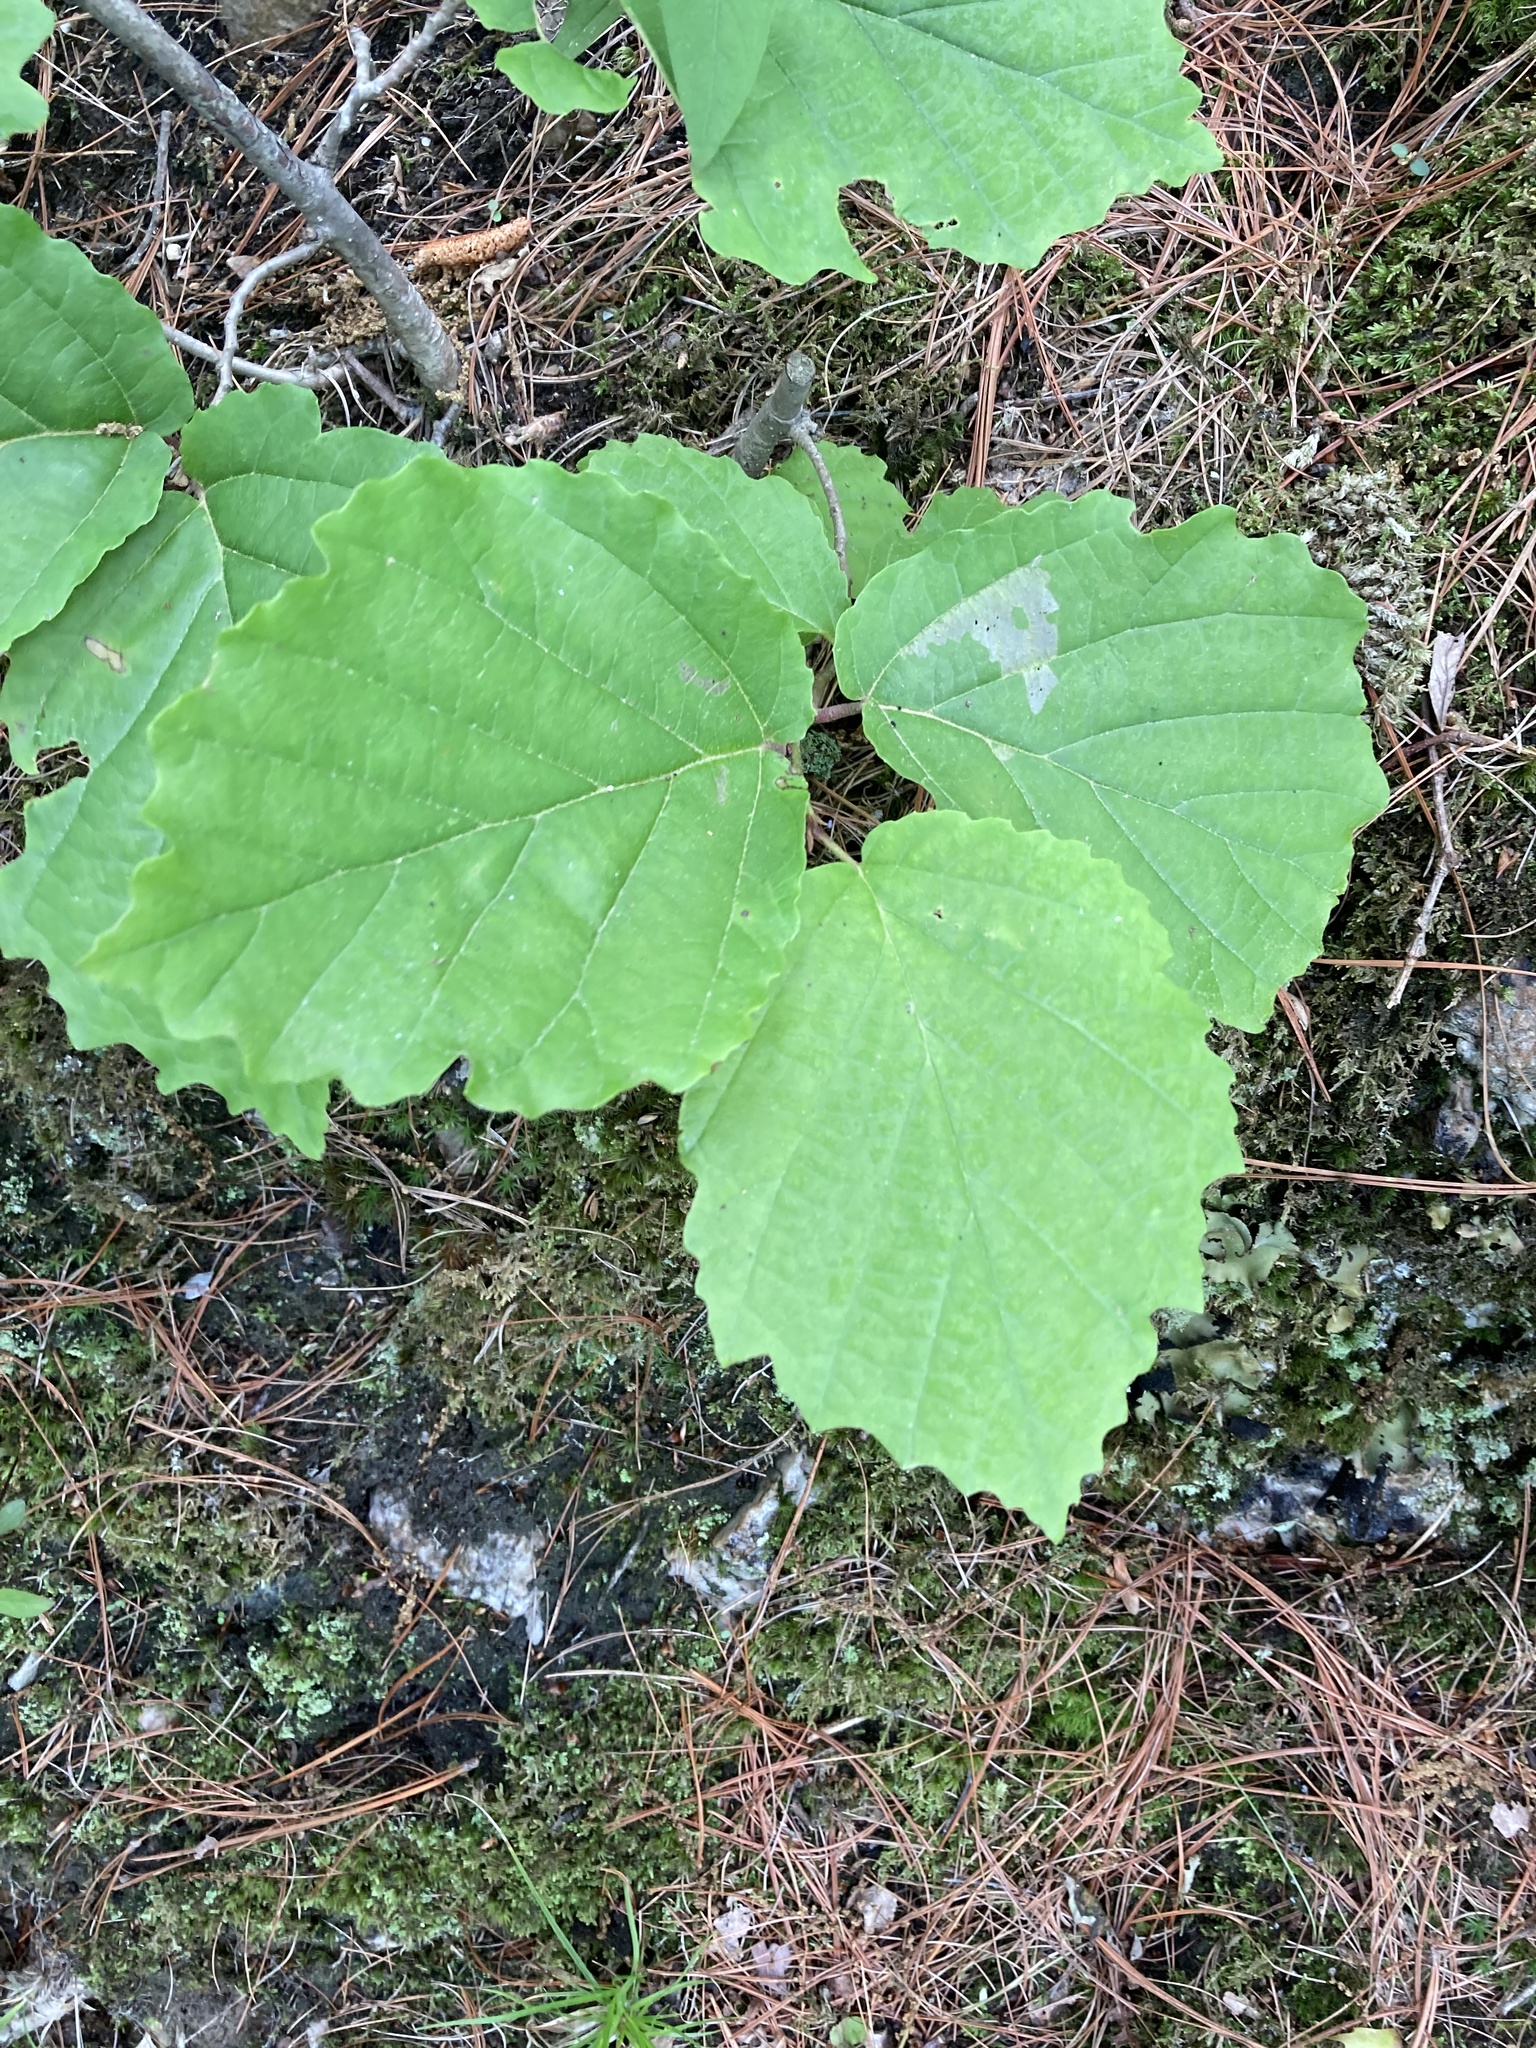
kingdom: Plantae
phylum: Tracheophyta
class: Magnoliopsida
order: Saxifragales
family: Hamamelidaceae
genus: Hamamelis
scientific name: Hamamelis virginiana
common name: Witch-hazel
